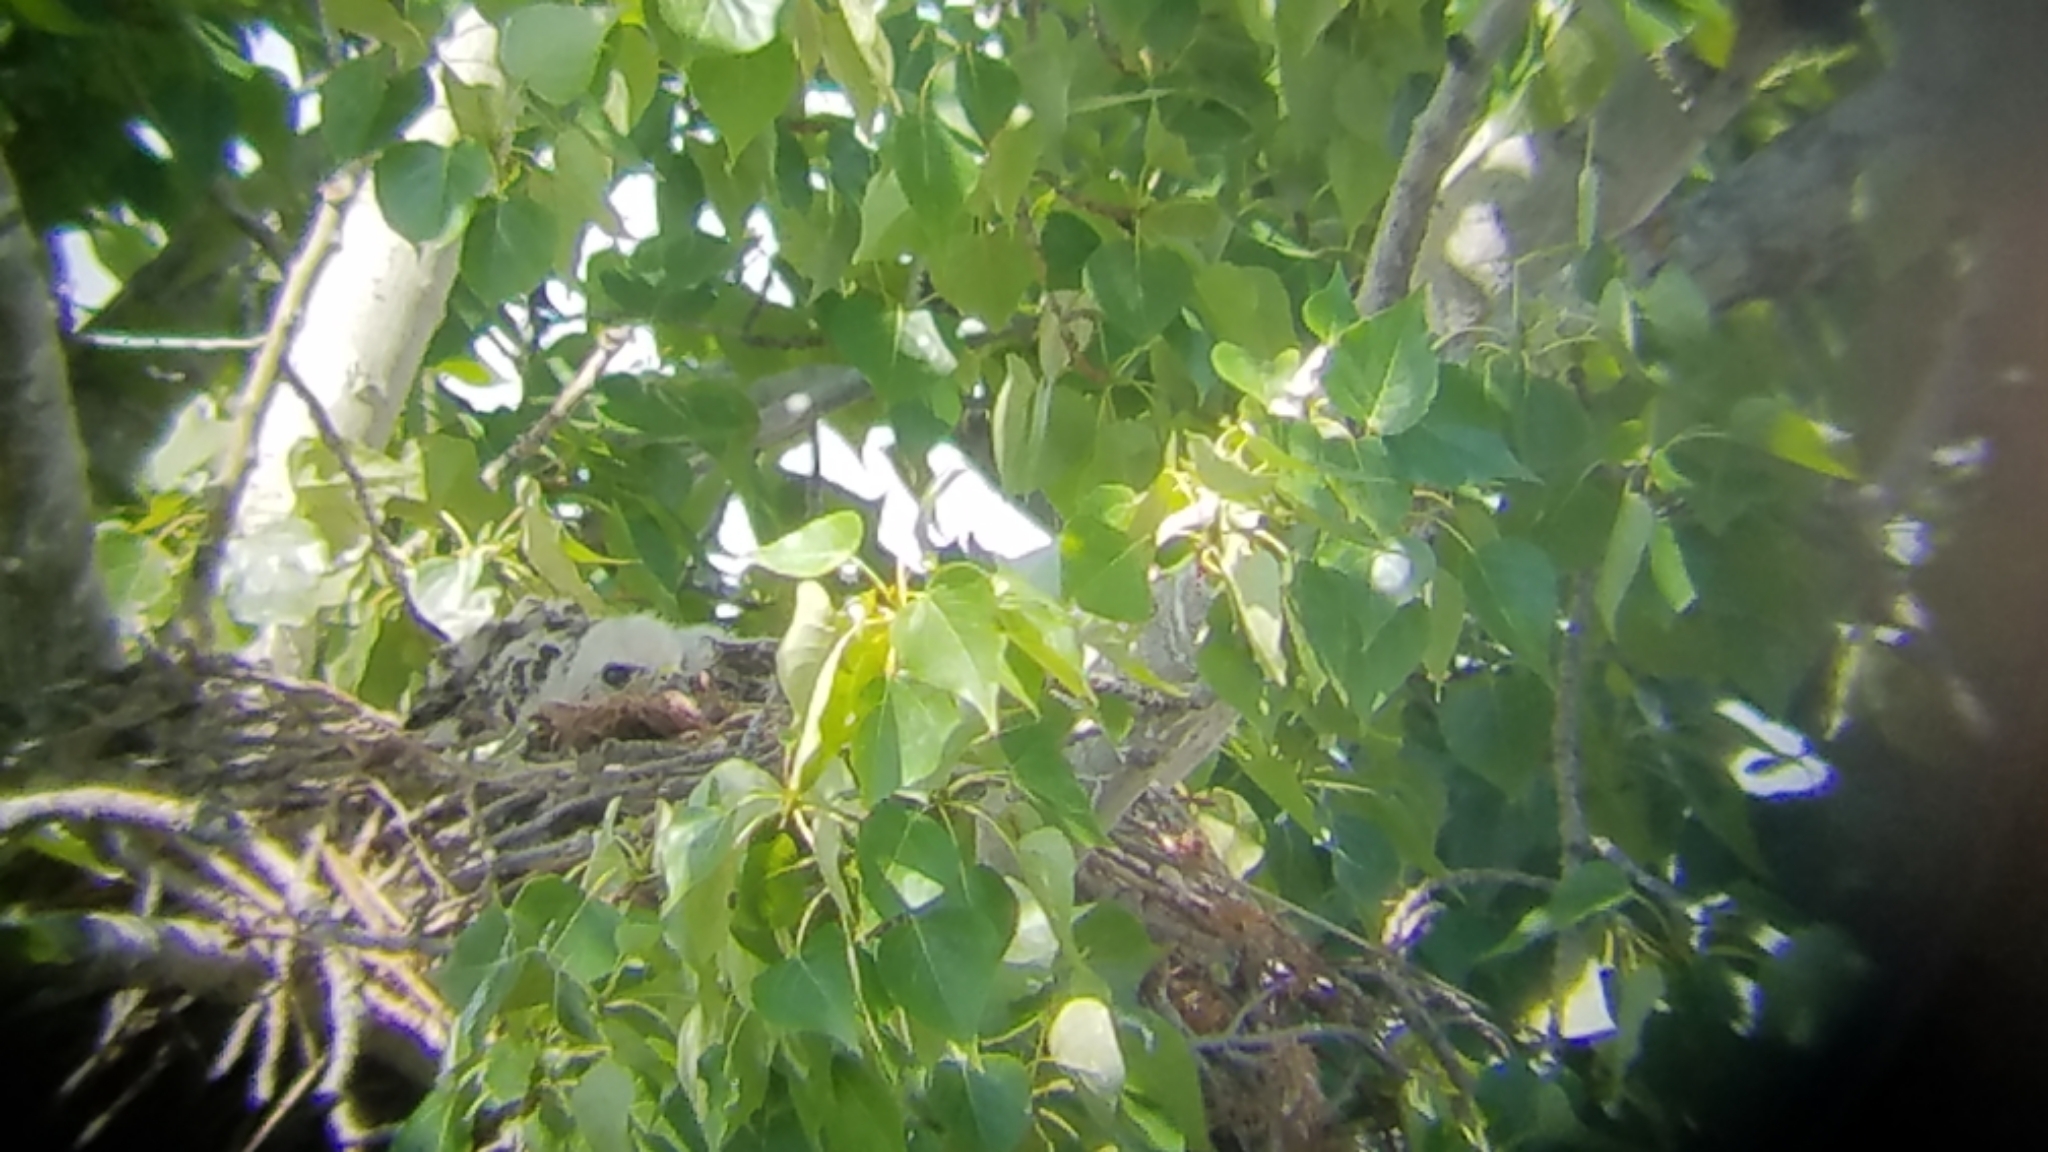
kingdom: Animalia
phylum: Chordata
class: Aves
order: Accipitriformes
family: Accipitridae
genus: Buteo
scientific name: Buteo jamaicensis
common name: Red-tailed hawk
